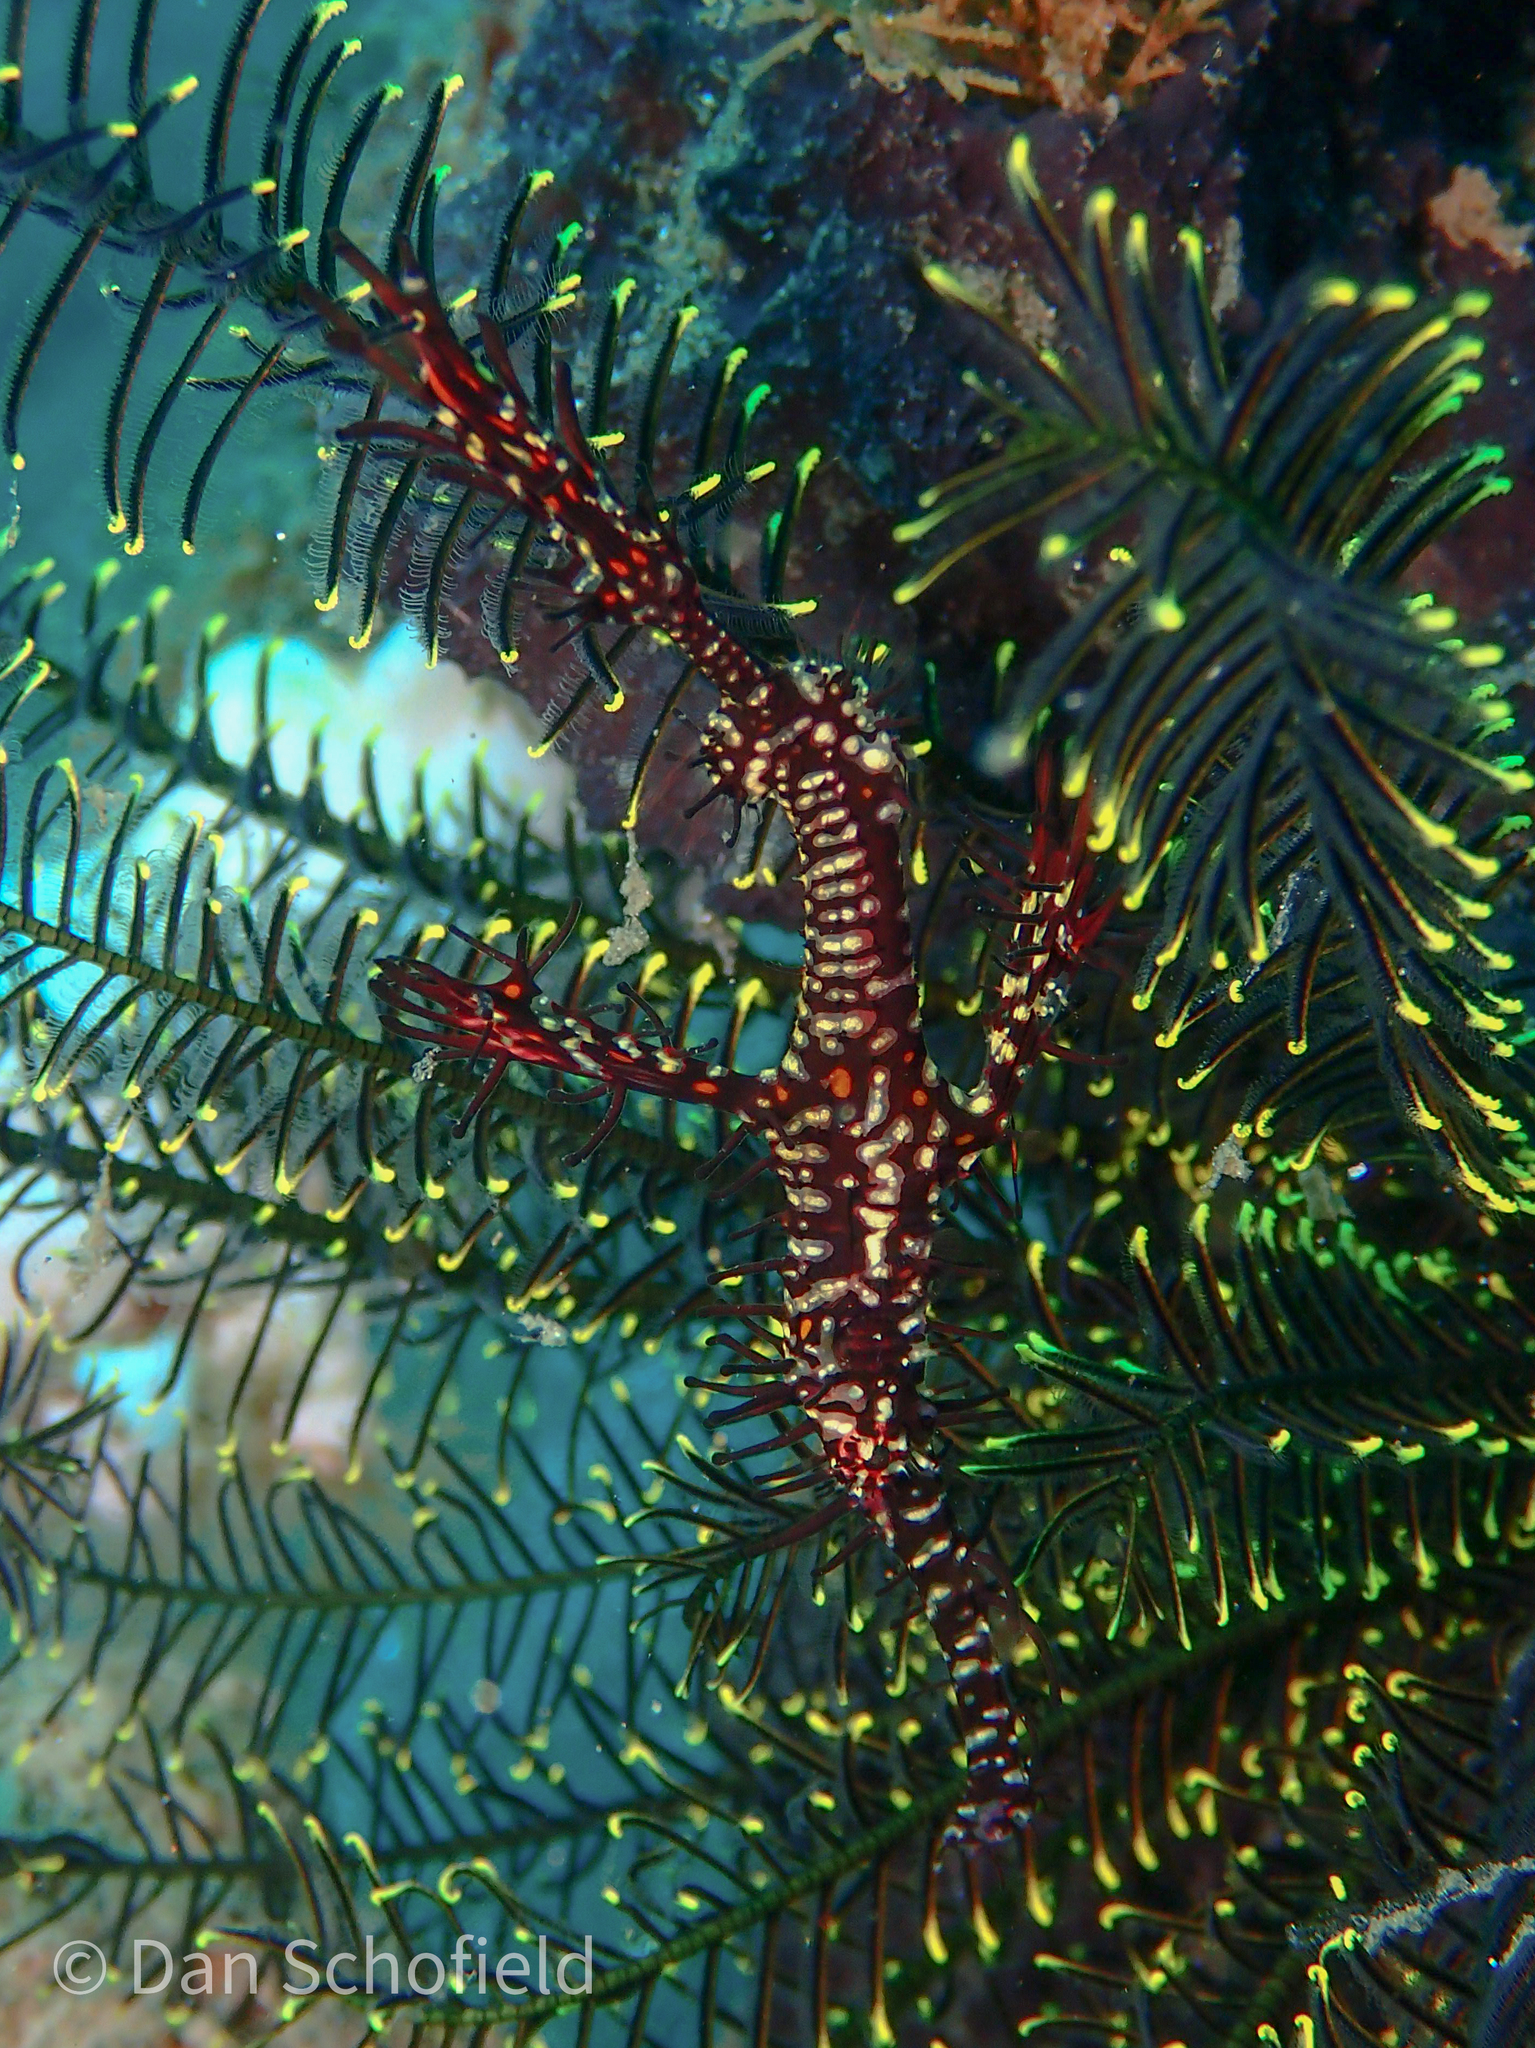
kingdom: Animalia
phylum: Chordata
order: Syngnathiformes
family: Solenostomidae
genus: Solenostomus
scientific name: Solenostomus paradoxus
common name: Ghost pipefish
